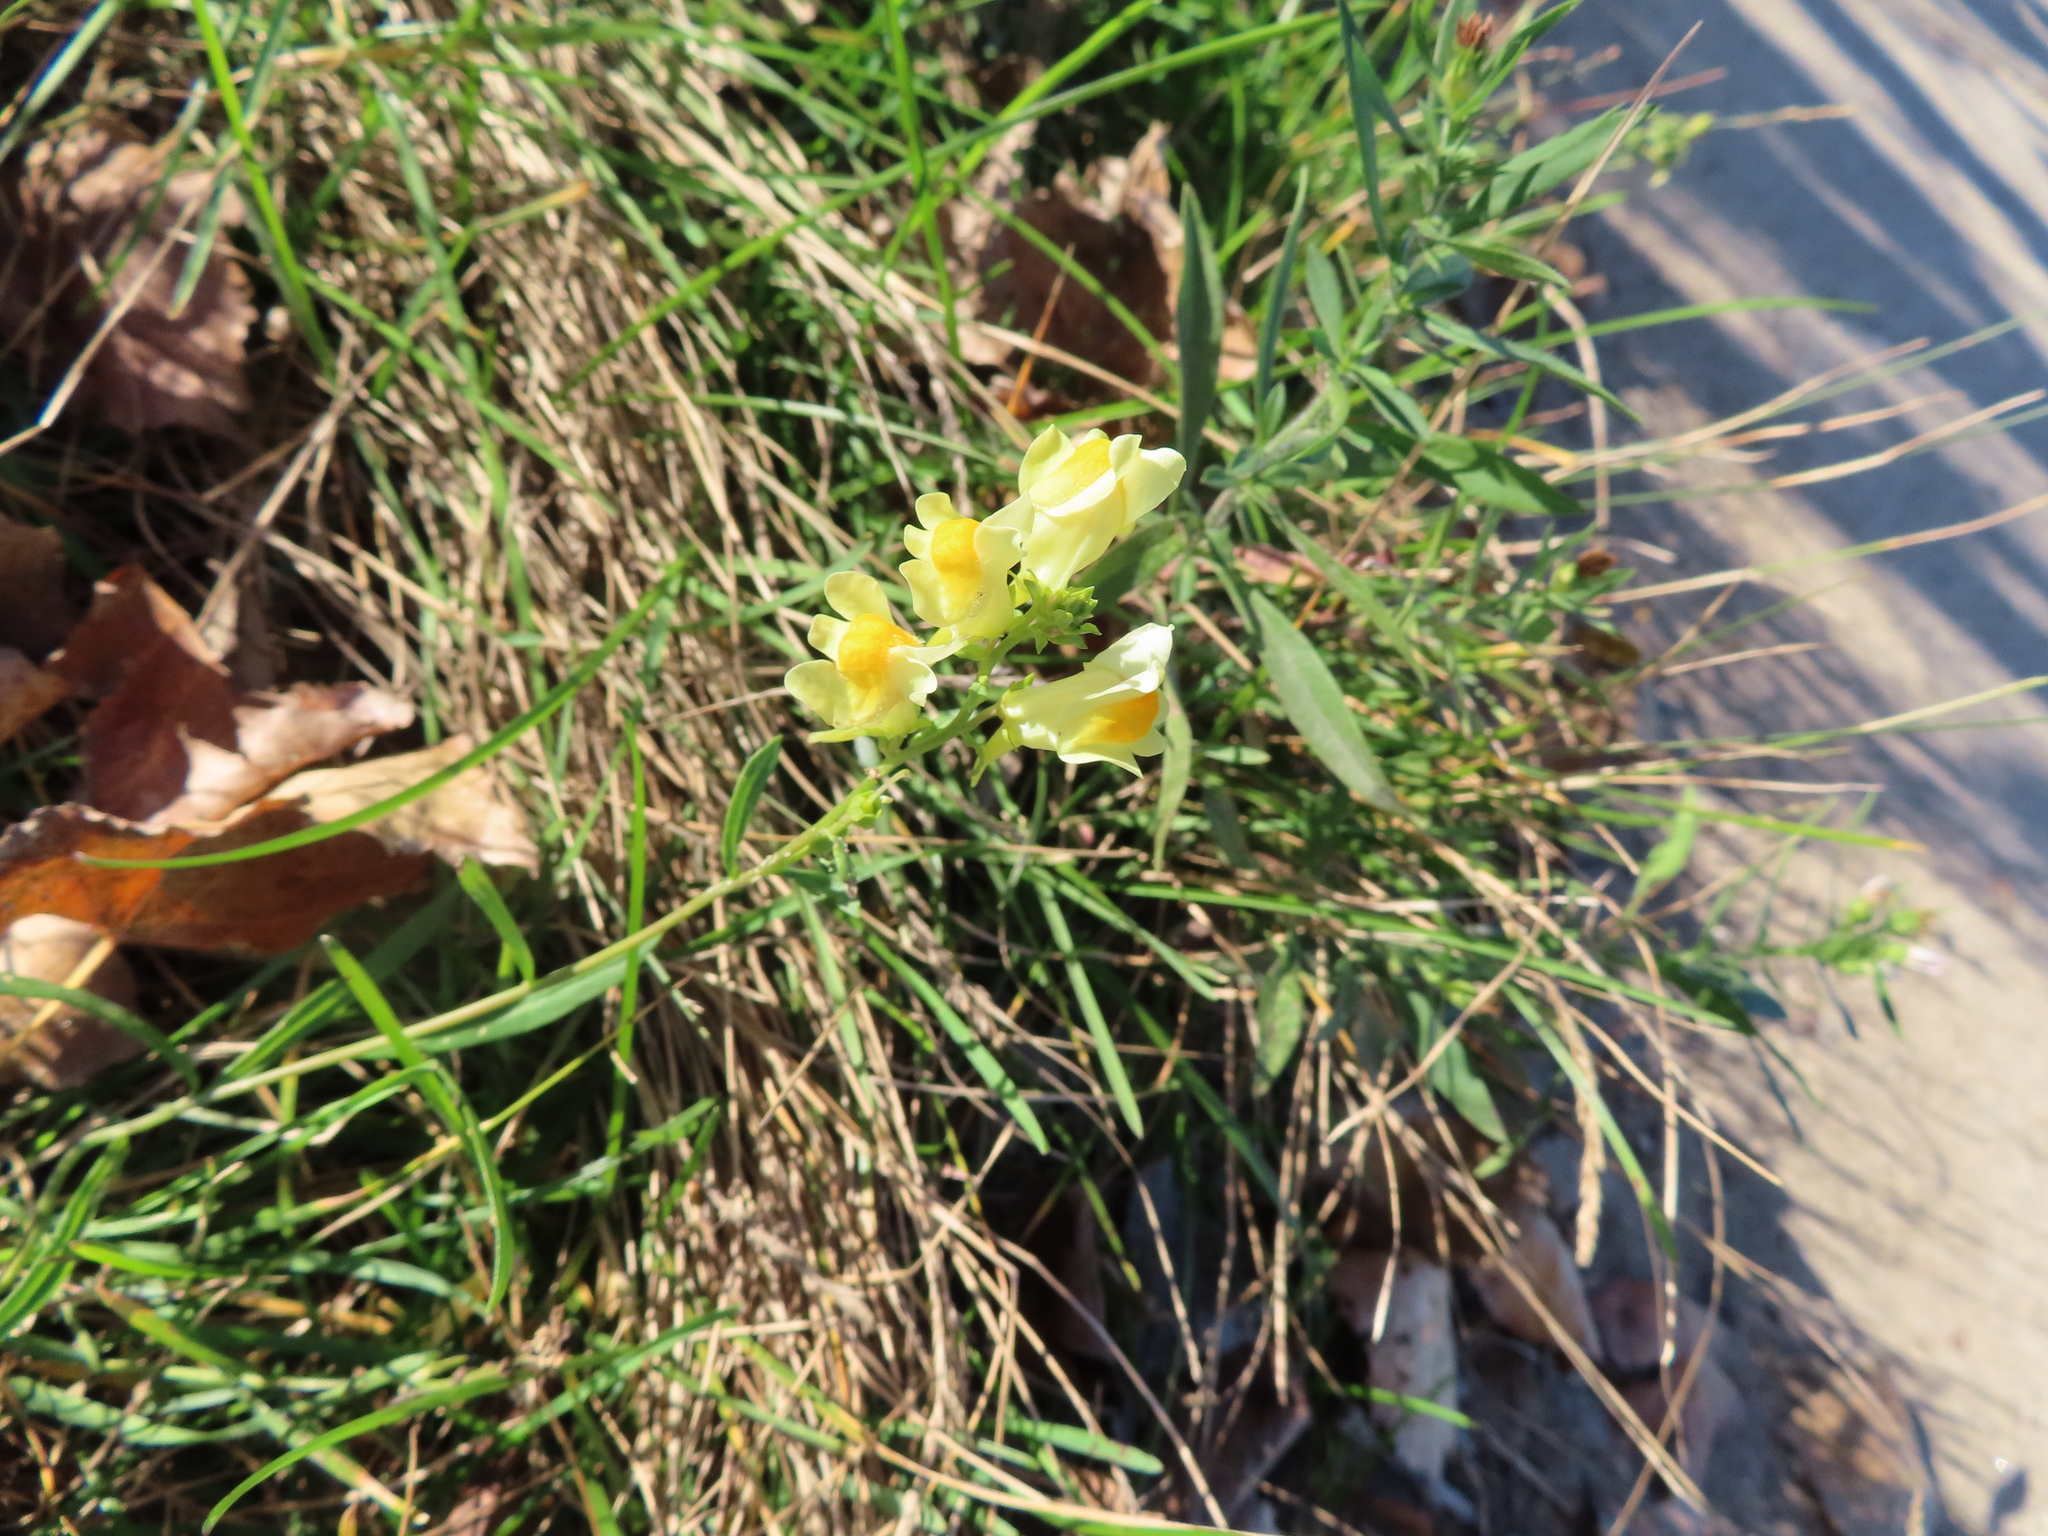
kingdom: Plantae
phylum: Tracheophyta
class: Magnoliopsida
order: Lamiales
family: Plantaginaceae
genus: Linaria
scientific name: Linaria vulgaris
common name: Butter and eggs
